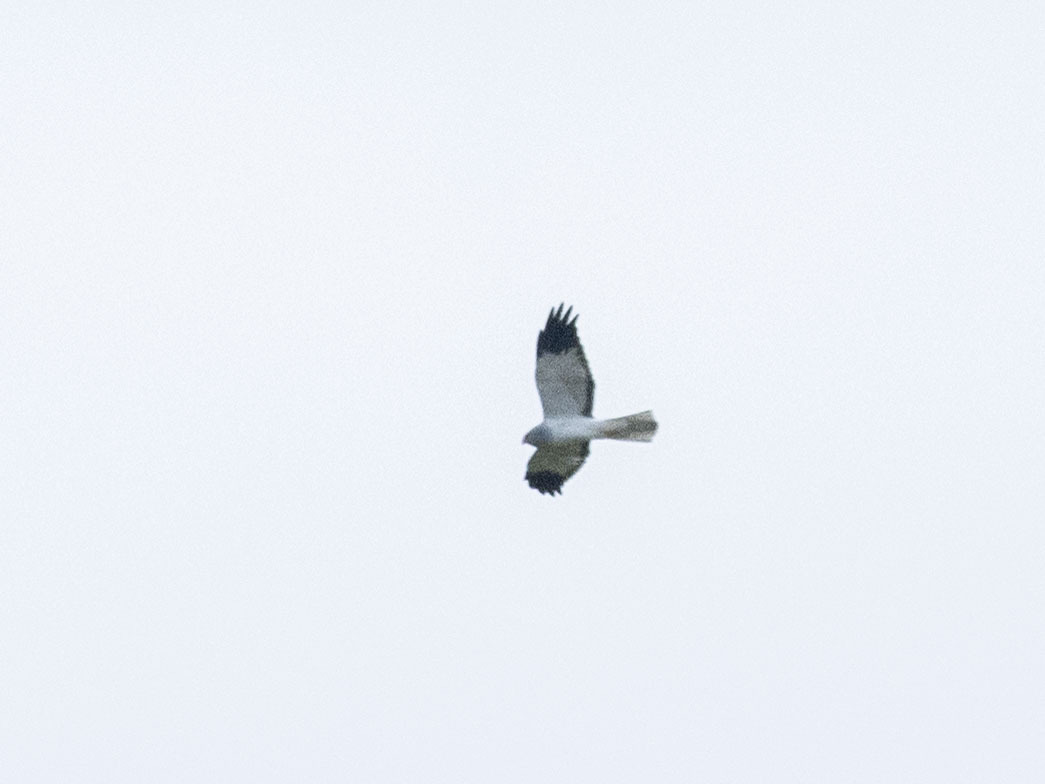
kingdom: Animalia
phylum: Chordata
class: Aves
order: Accipitriformes
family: Accipitridae
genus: Circus
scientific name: Circus cyaneus
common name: Hen harrier
